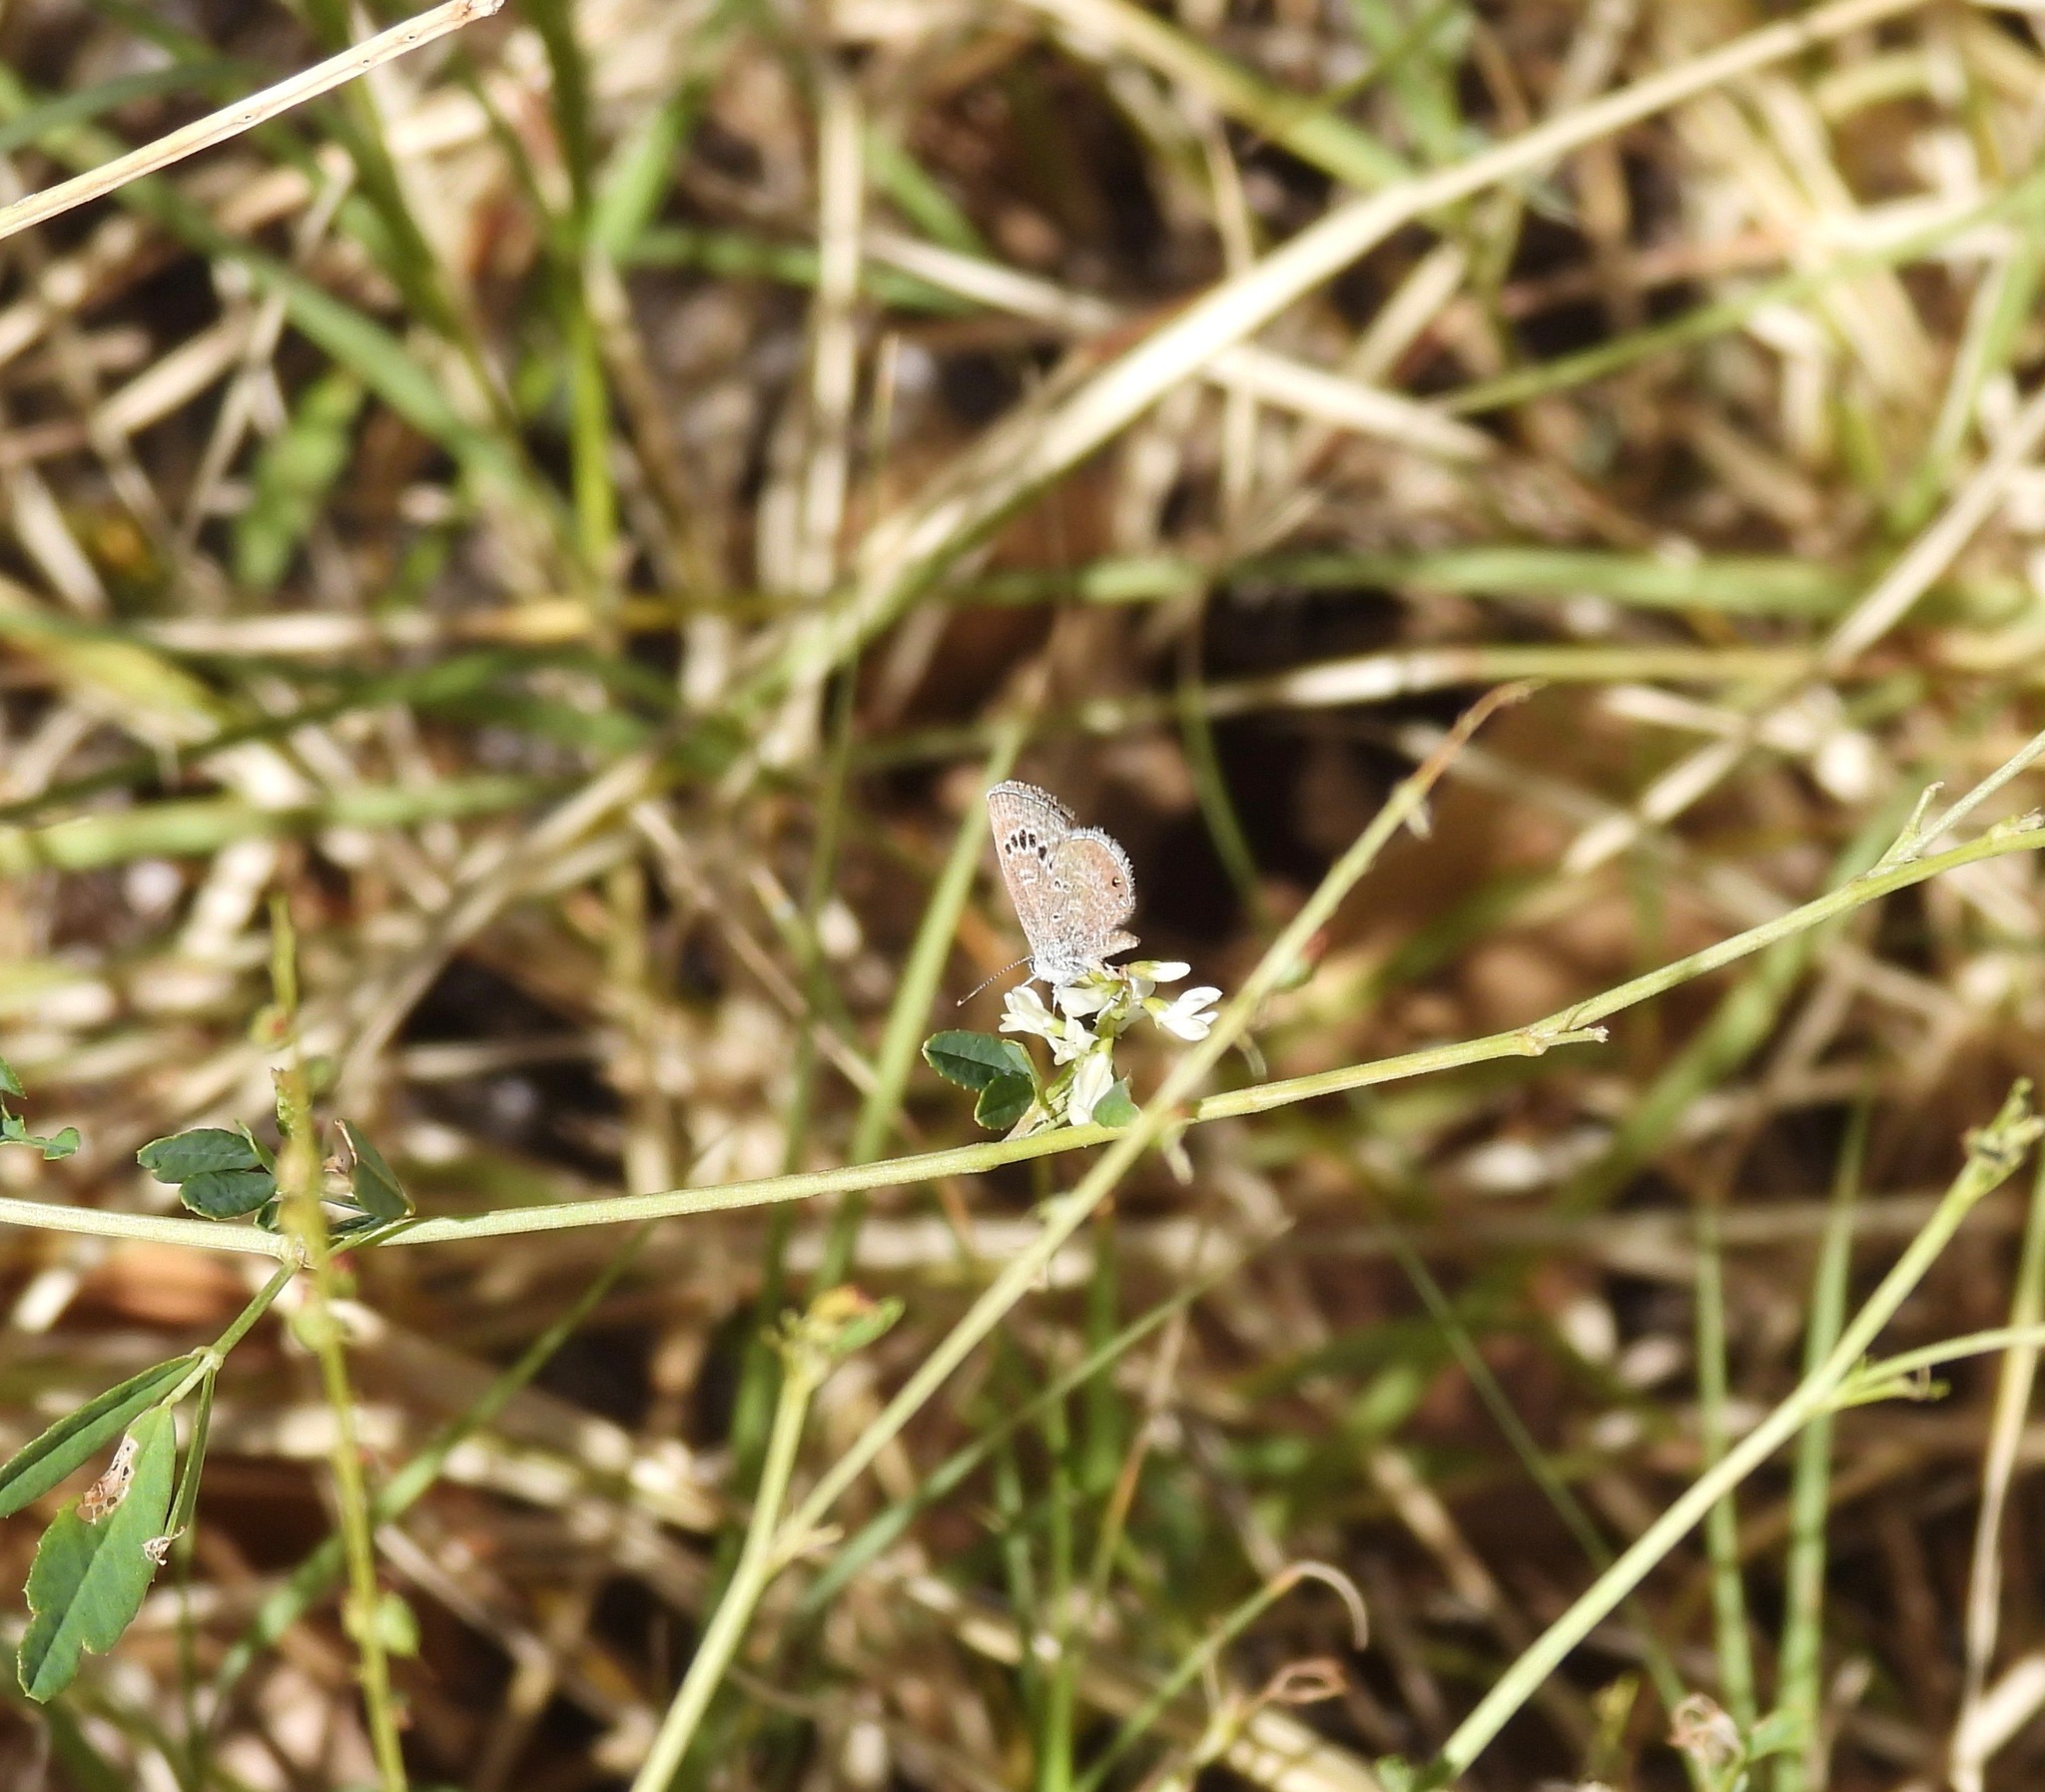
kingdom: Animalia
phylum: Arthropoda
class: Insecta
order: Lepidoptera
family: Lycaenidae
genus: Echinargus
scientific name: Echinargus isola
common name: Reakirt's blue
